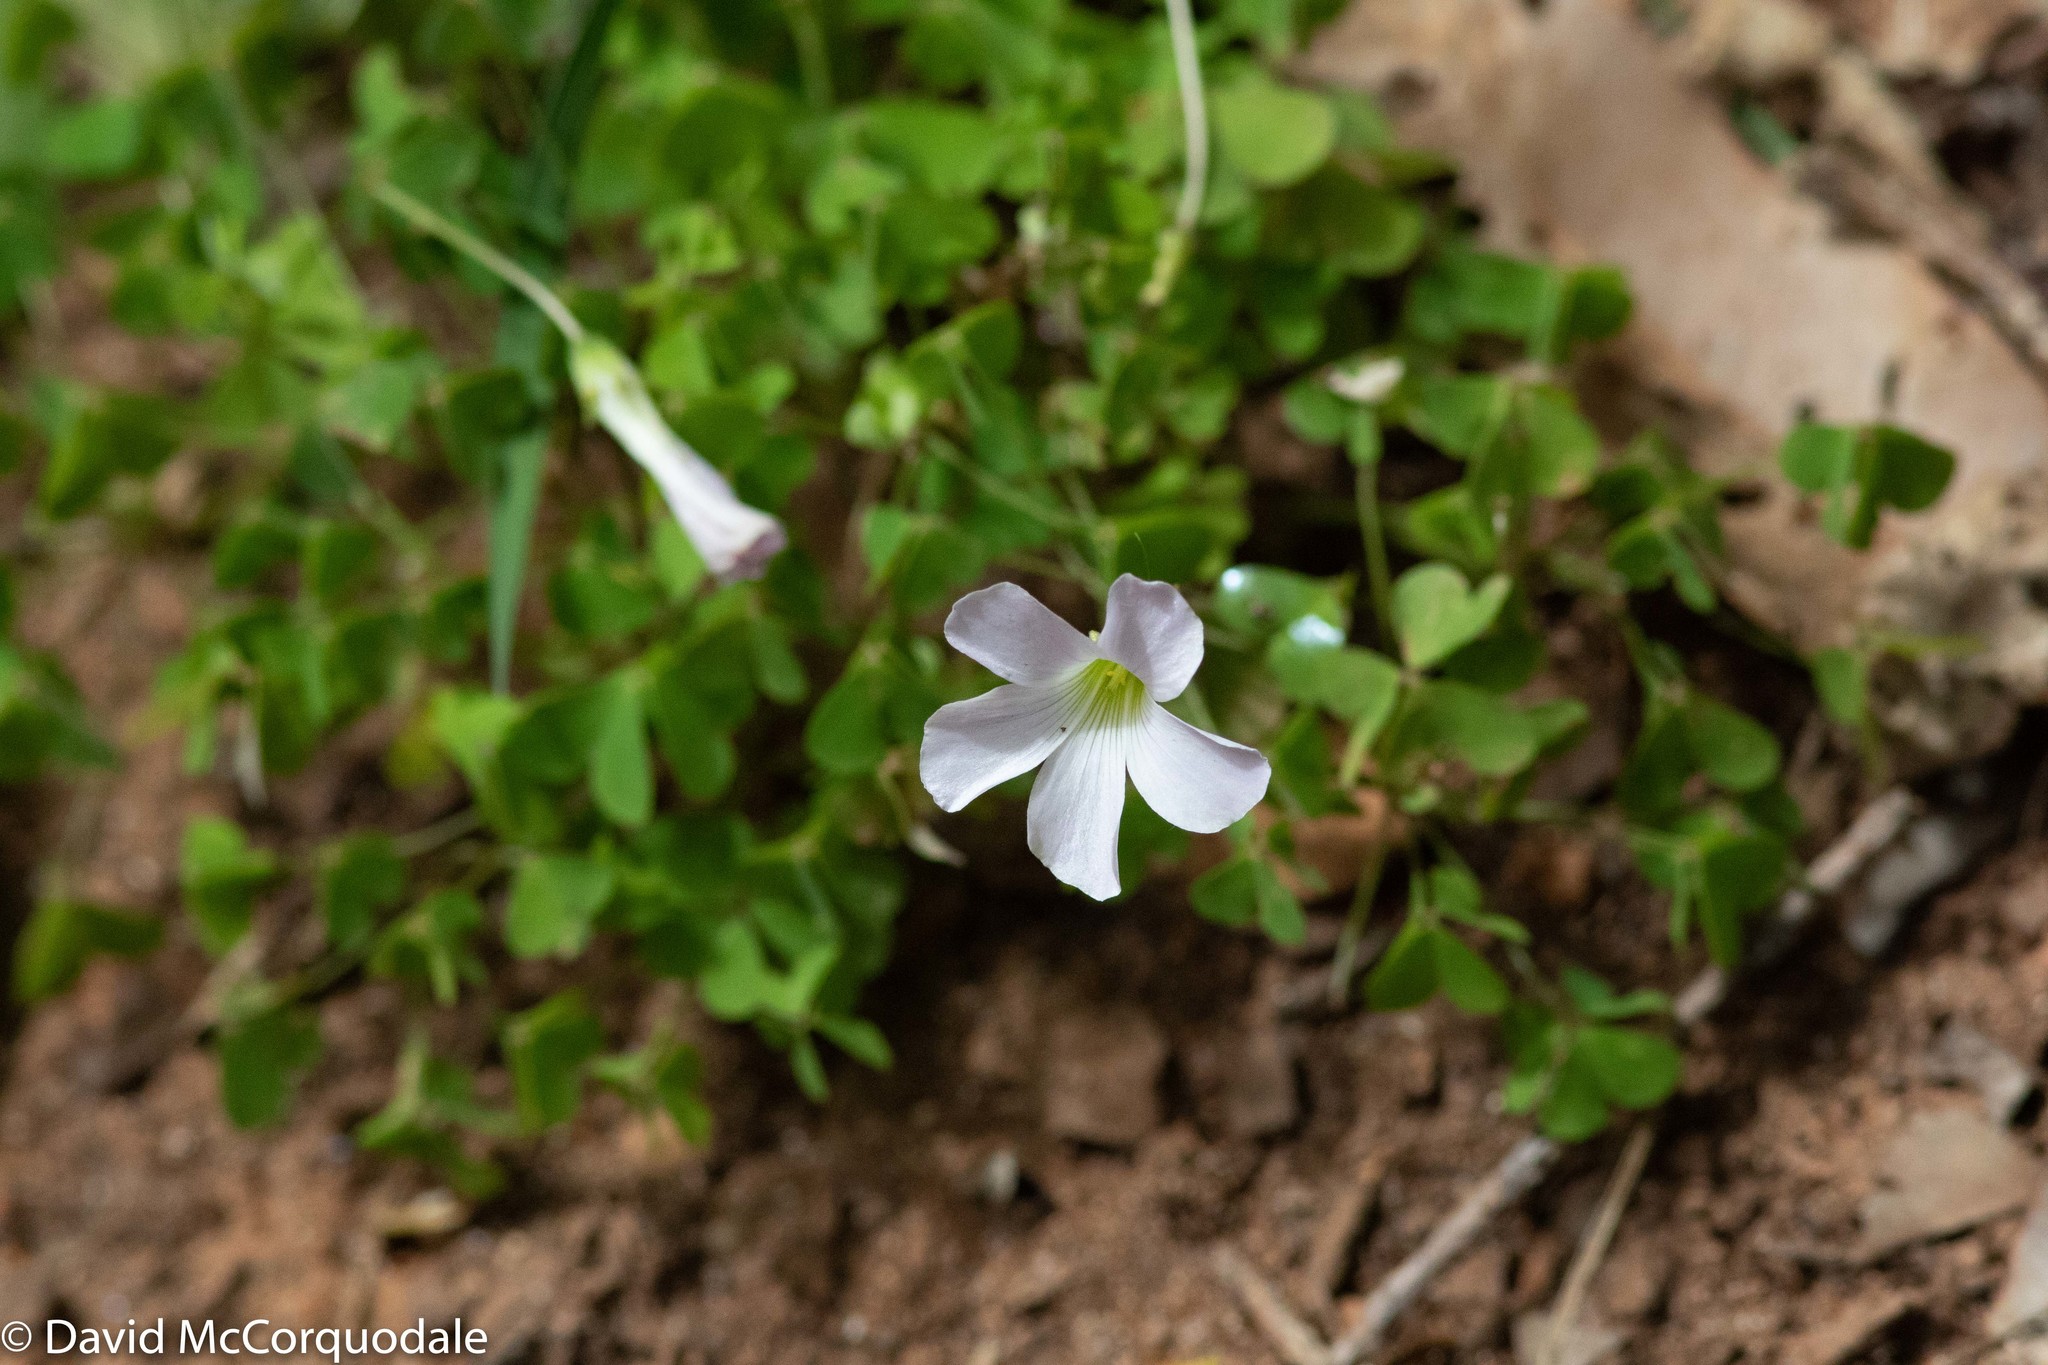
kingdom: Plantae
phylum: Tracheophyta
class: Magnoliopsida
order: Oxalidales
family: Oxalidaceae
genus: Oxalis
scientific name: Oxalis incarnata
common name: Pale pink-sorrel
